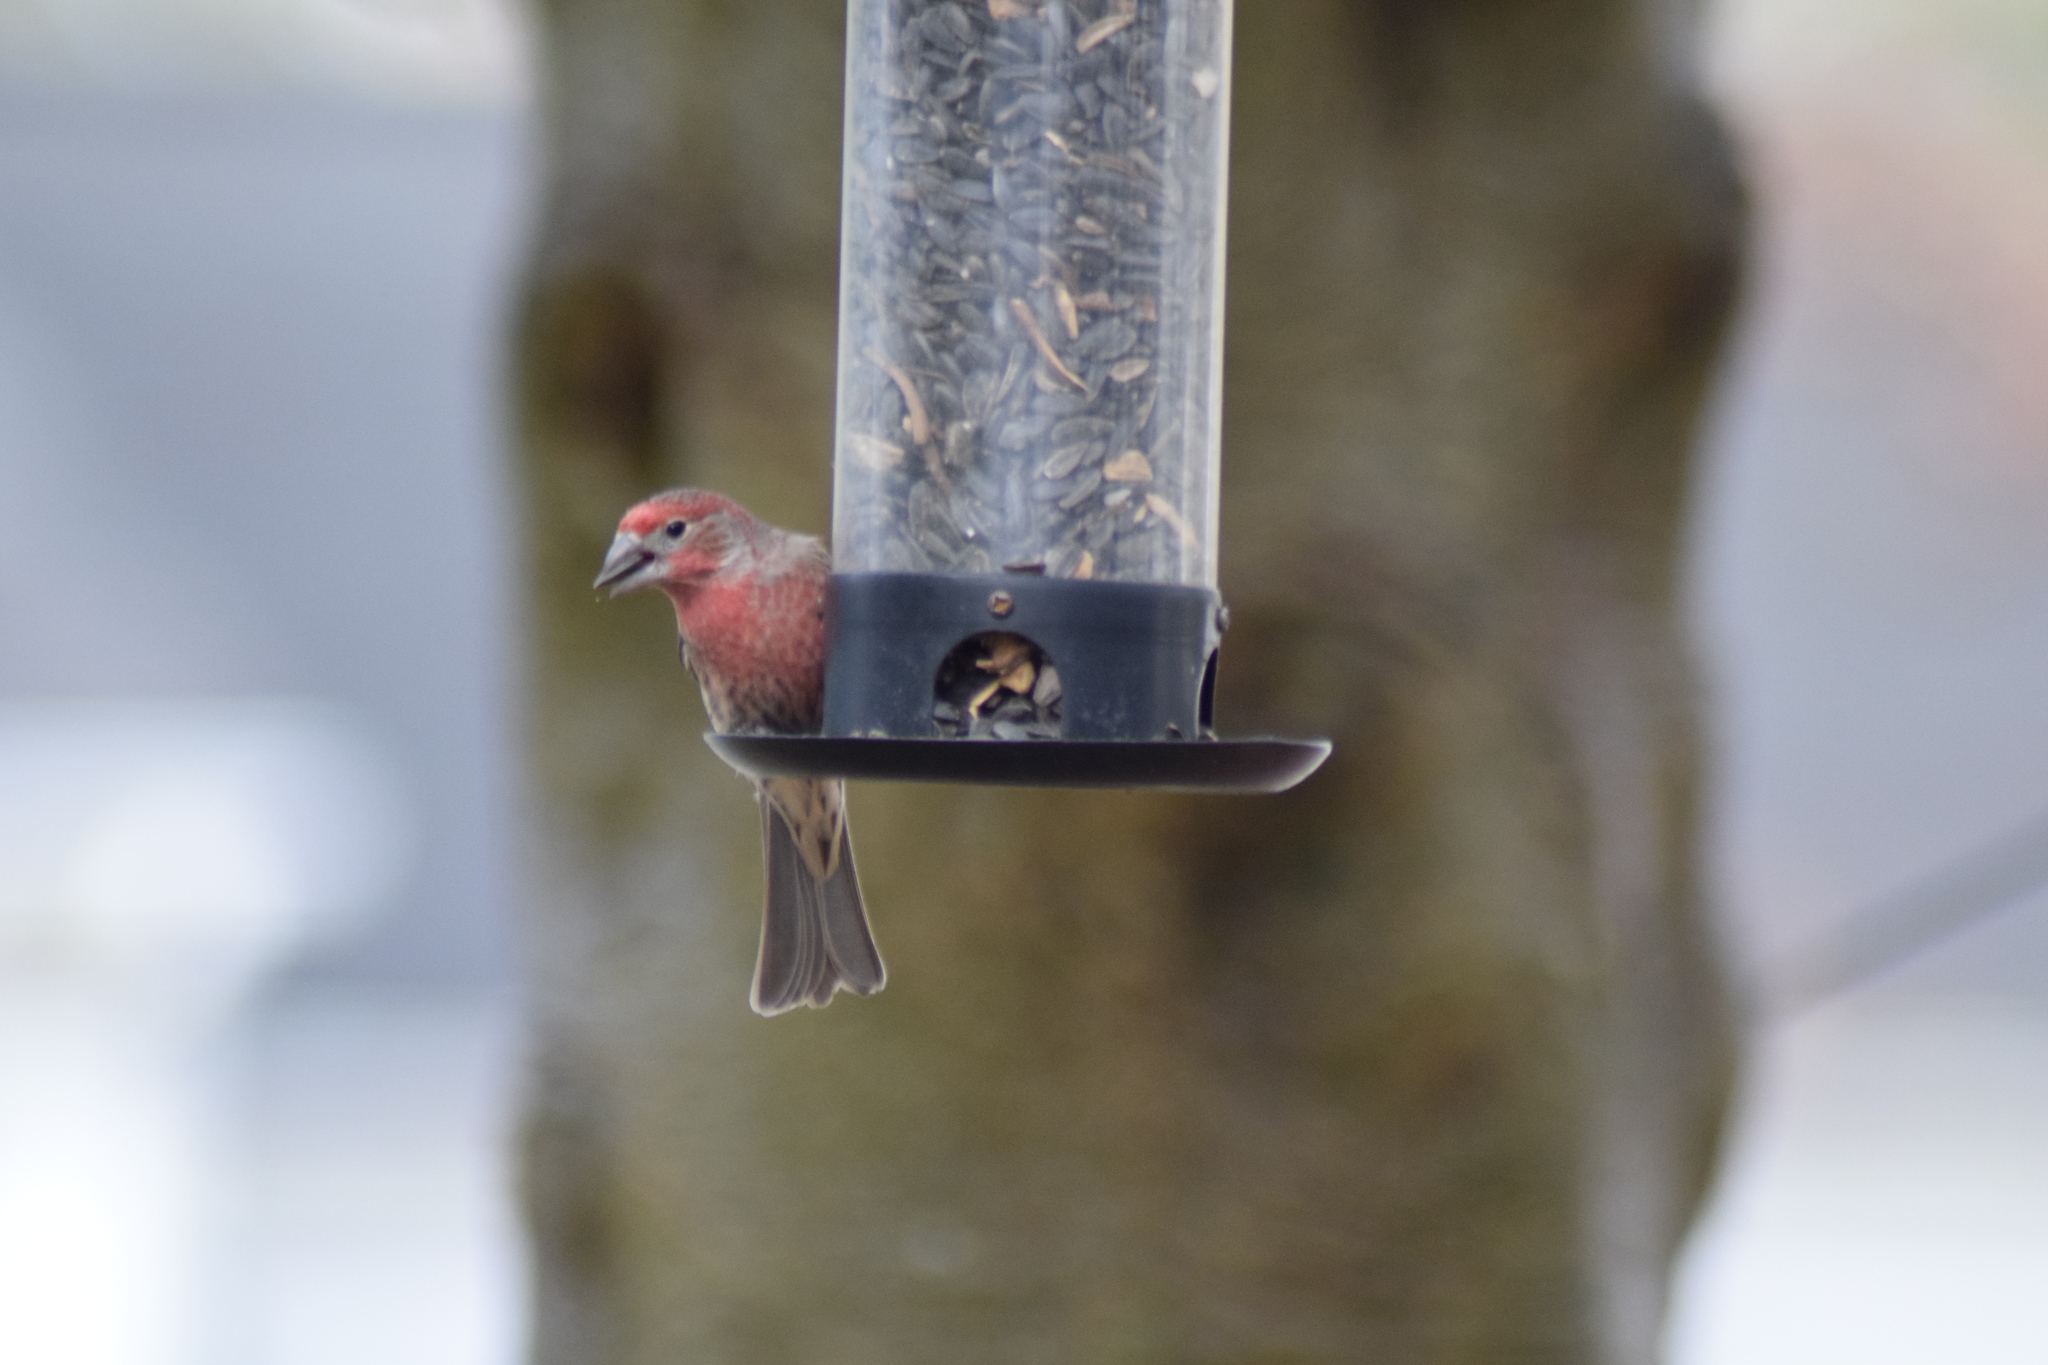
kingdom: Animalia
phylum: Chordata
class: Aves
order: Passeriformes
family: Fringillidae
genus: Haemorhous
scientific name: Haemorhous mexicanus
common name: House finch
